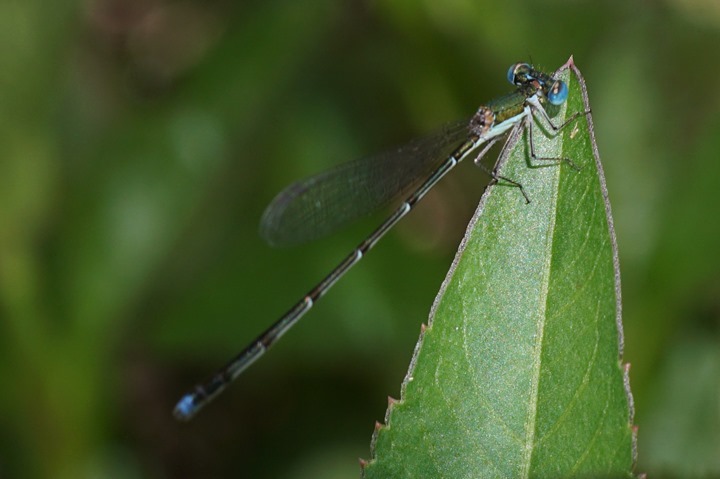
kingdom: Animalia
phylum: Arthropoda
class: Insecta
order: Odonata
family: Coenagrionidae
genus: Nehalennia
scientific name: Nehalennia integricollis
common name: Southern sprite
